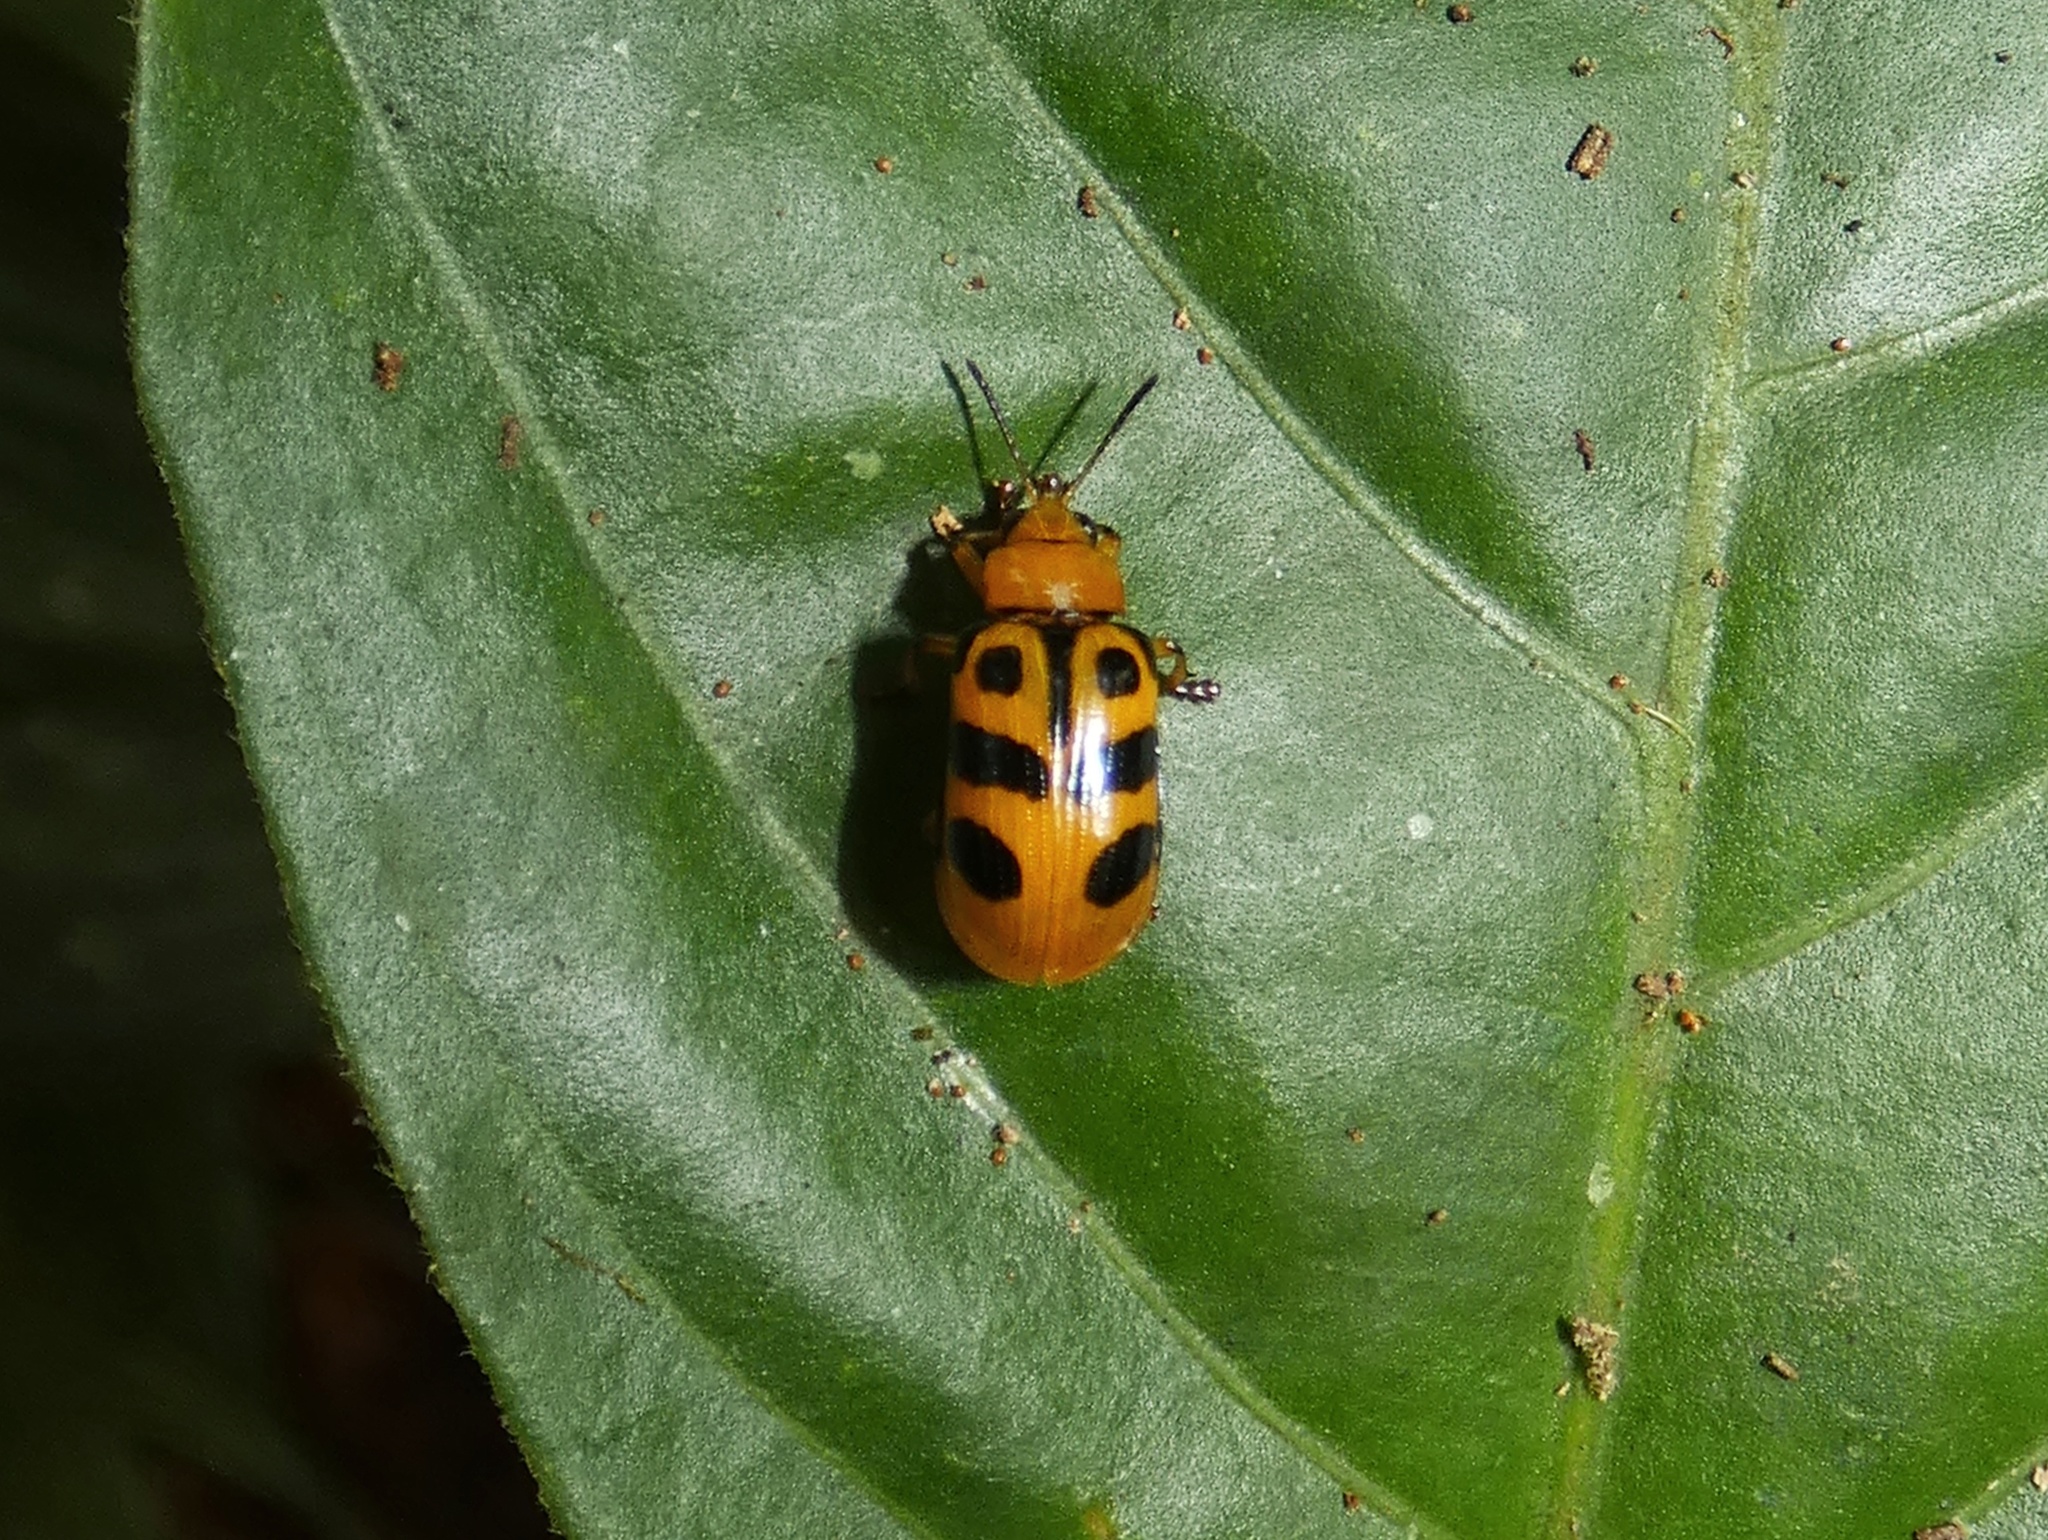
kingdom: Animalia
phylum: Arthropoda
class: Insecta
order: Coleoptera
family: Chrysomelidae
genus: Chelobasis
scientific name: Chelobasis bicolor
